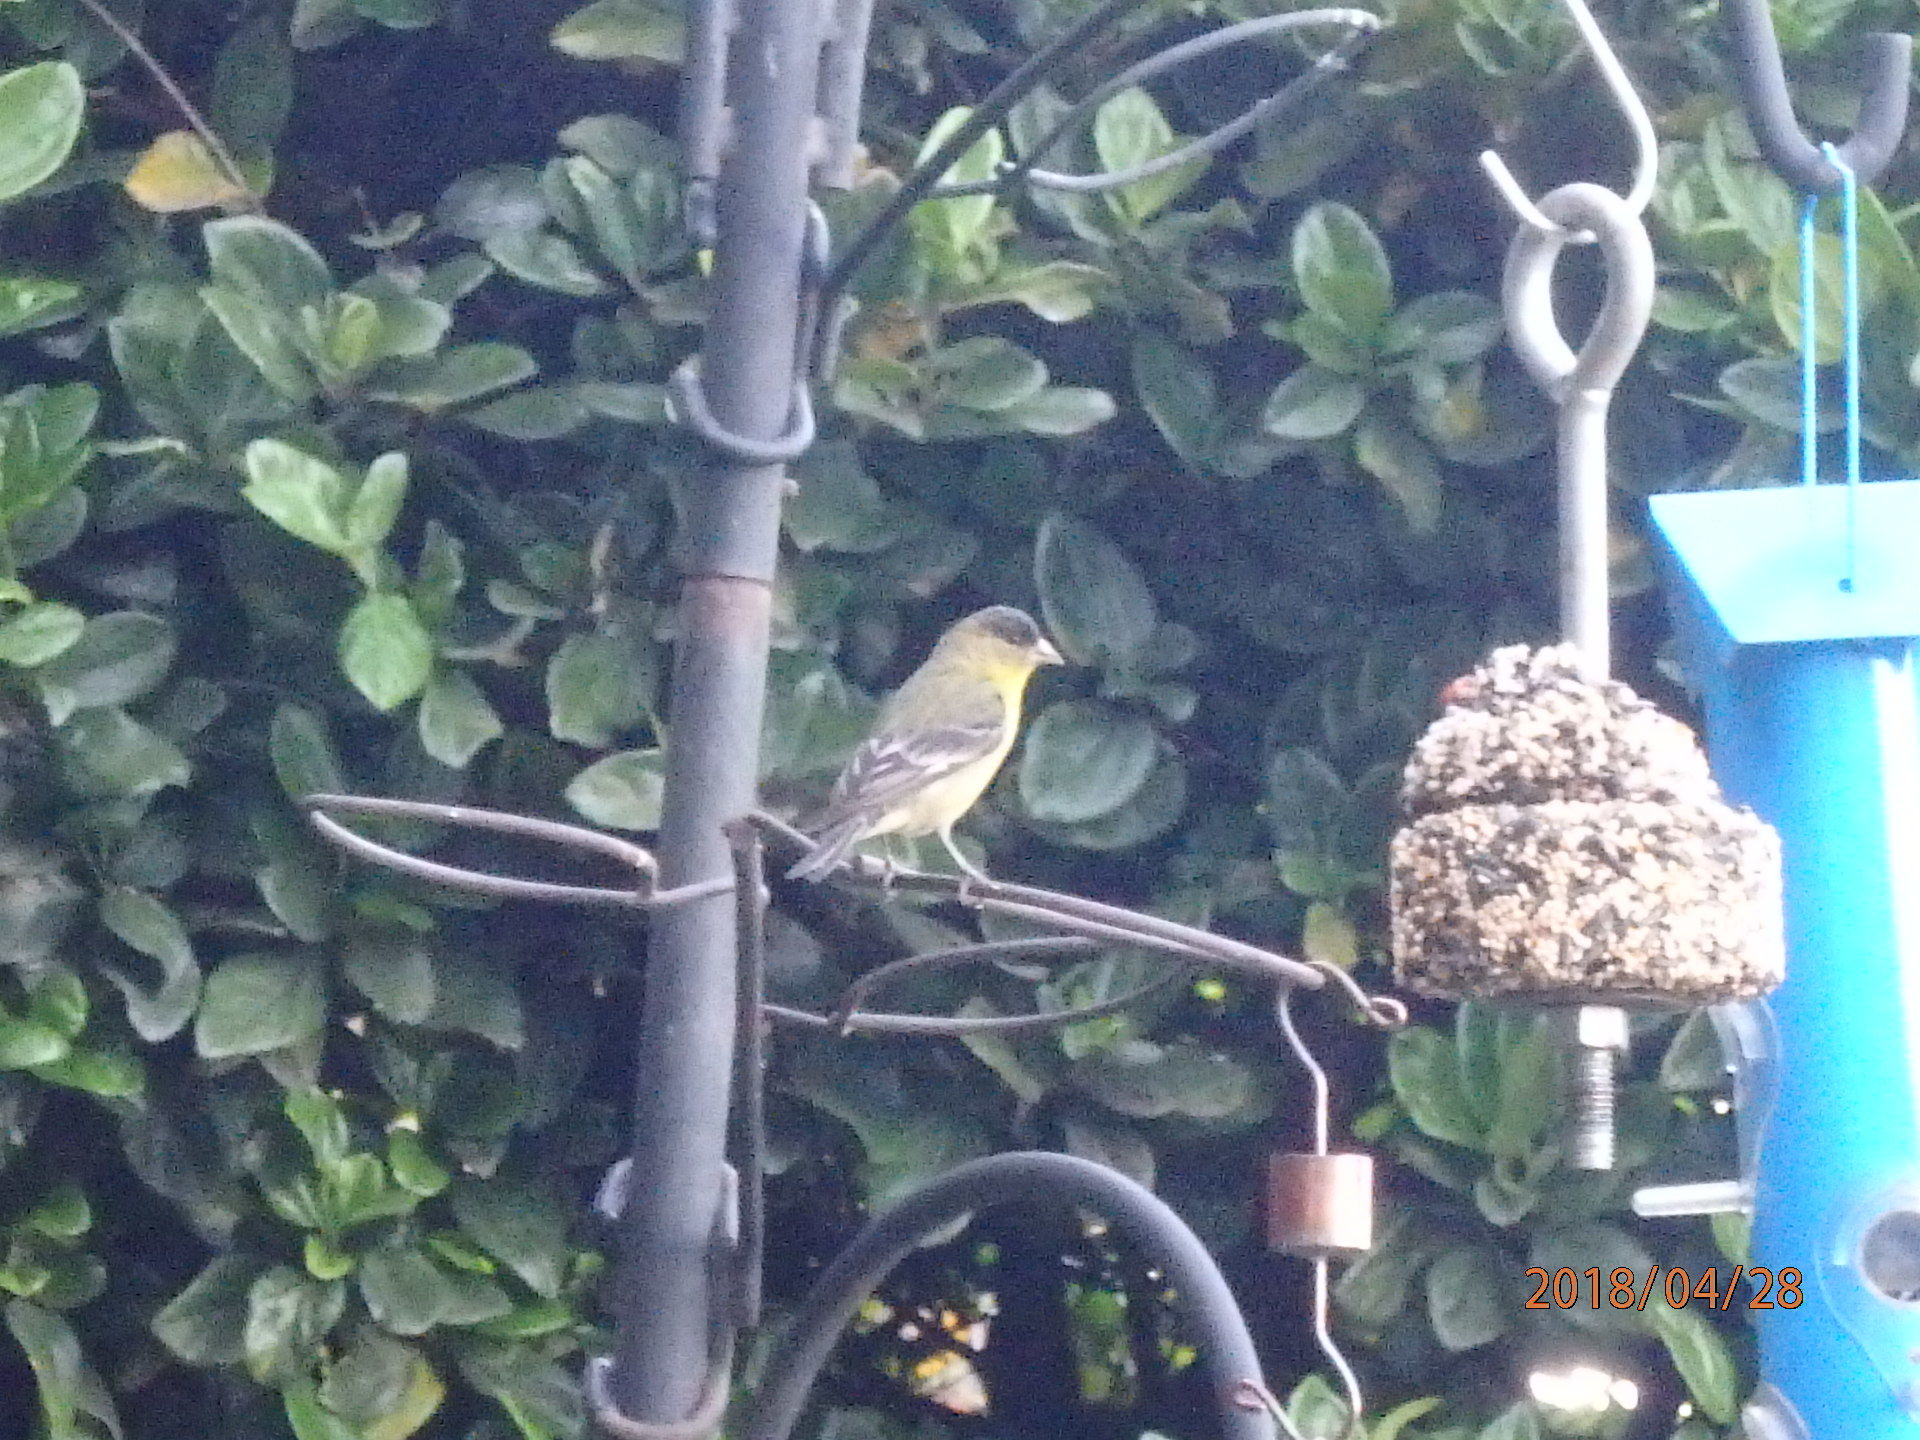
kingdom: Animalia
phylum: Chordata
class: Aves
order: Passeriformes
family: Fringillidae
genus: Spinus
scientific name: Spinus psaltria
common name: Lesser goldfinch
